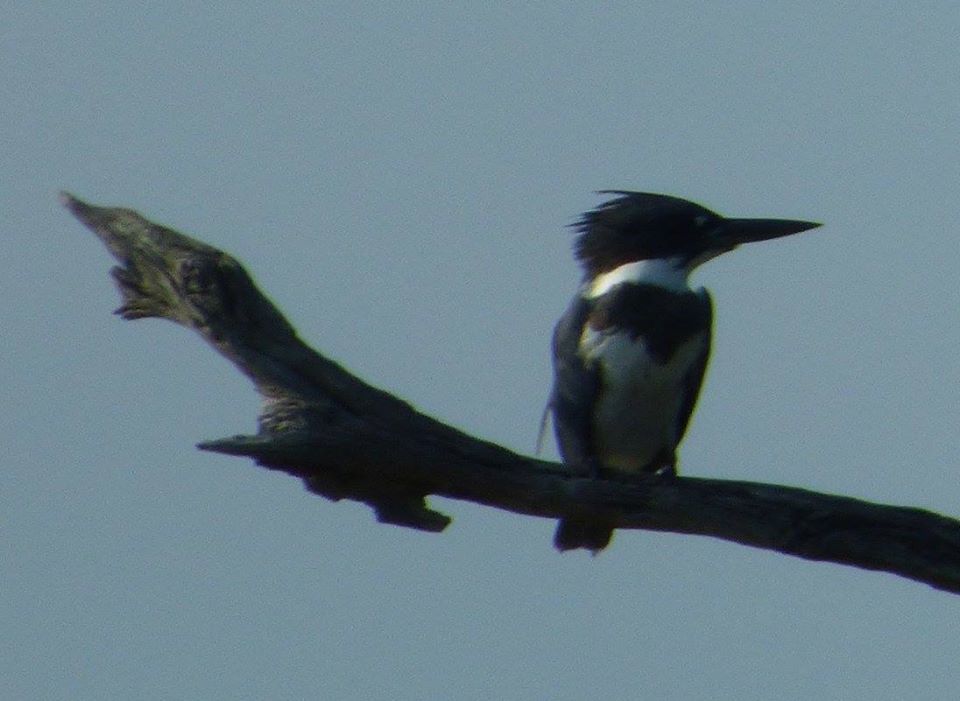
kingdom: Animalia
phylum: Chordata
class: Aves
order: Coraciiformes
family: Alcedinidae
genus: Megaceryle
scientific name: Megaceryle alcyon
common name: Belted kingfisher
